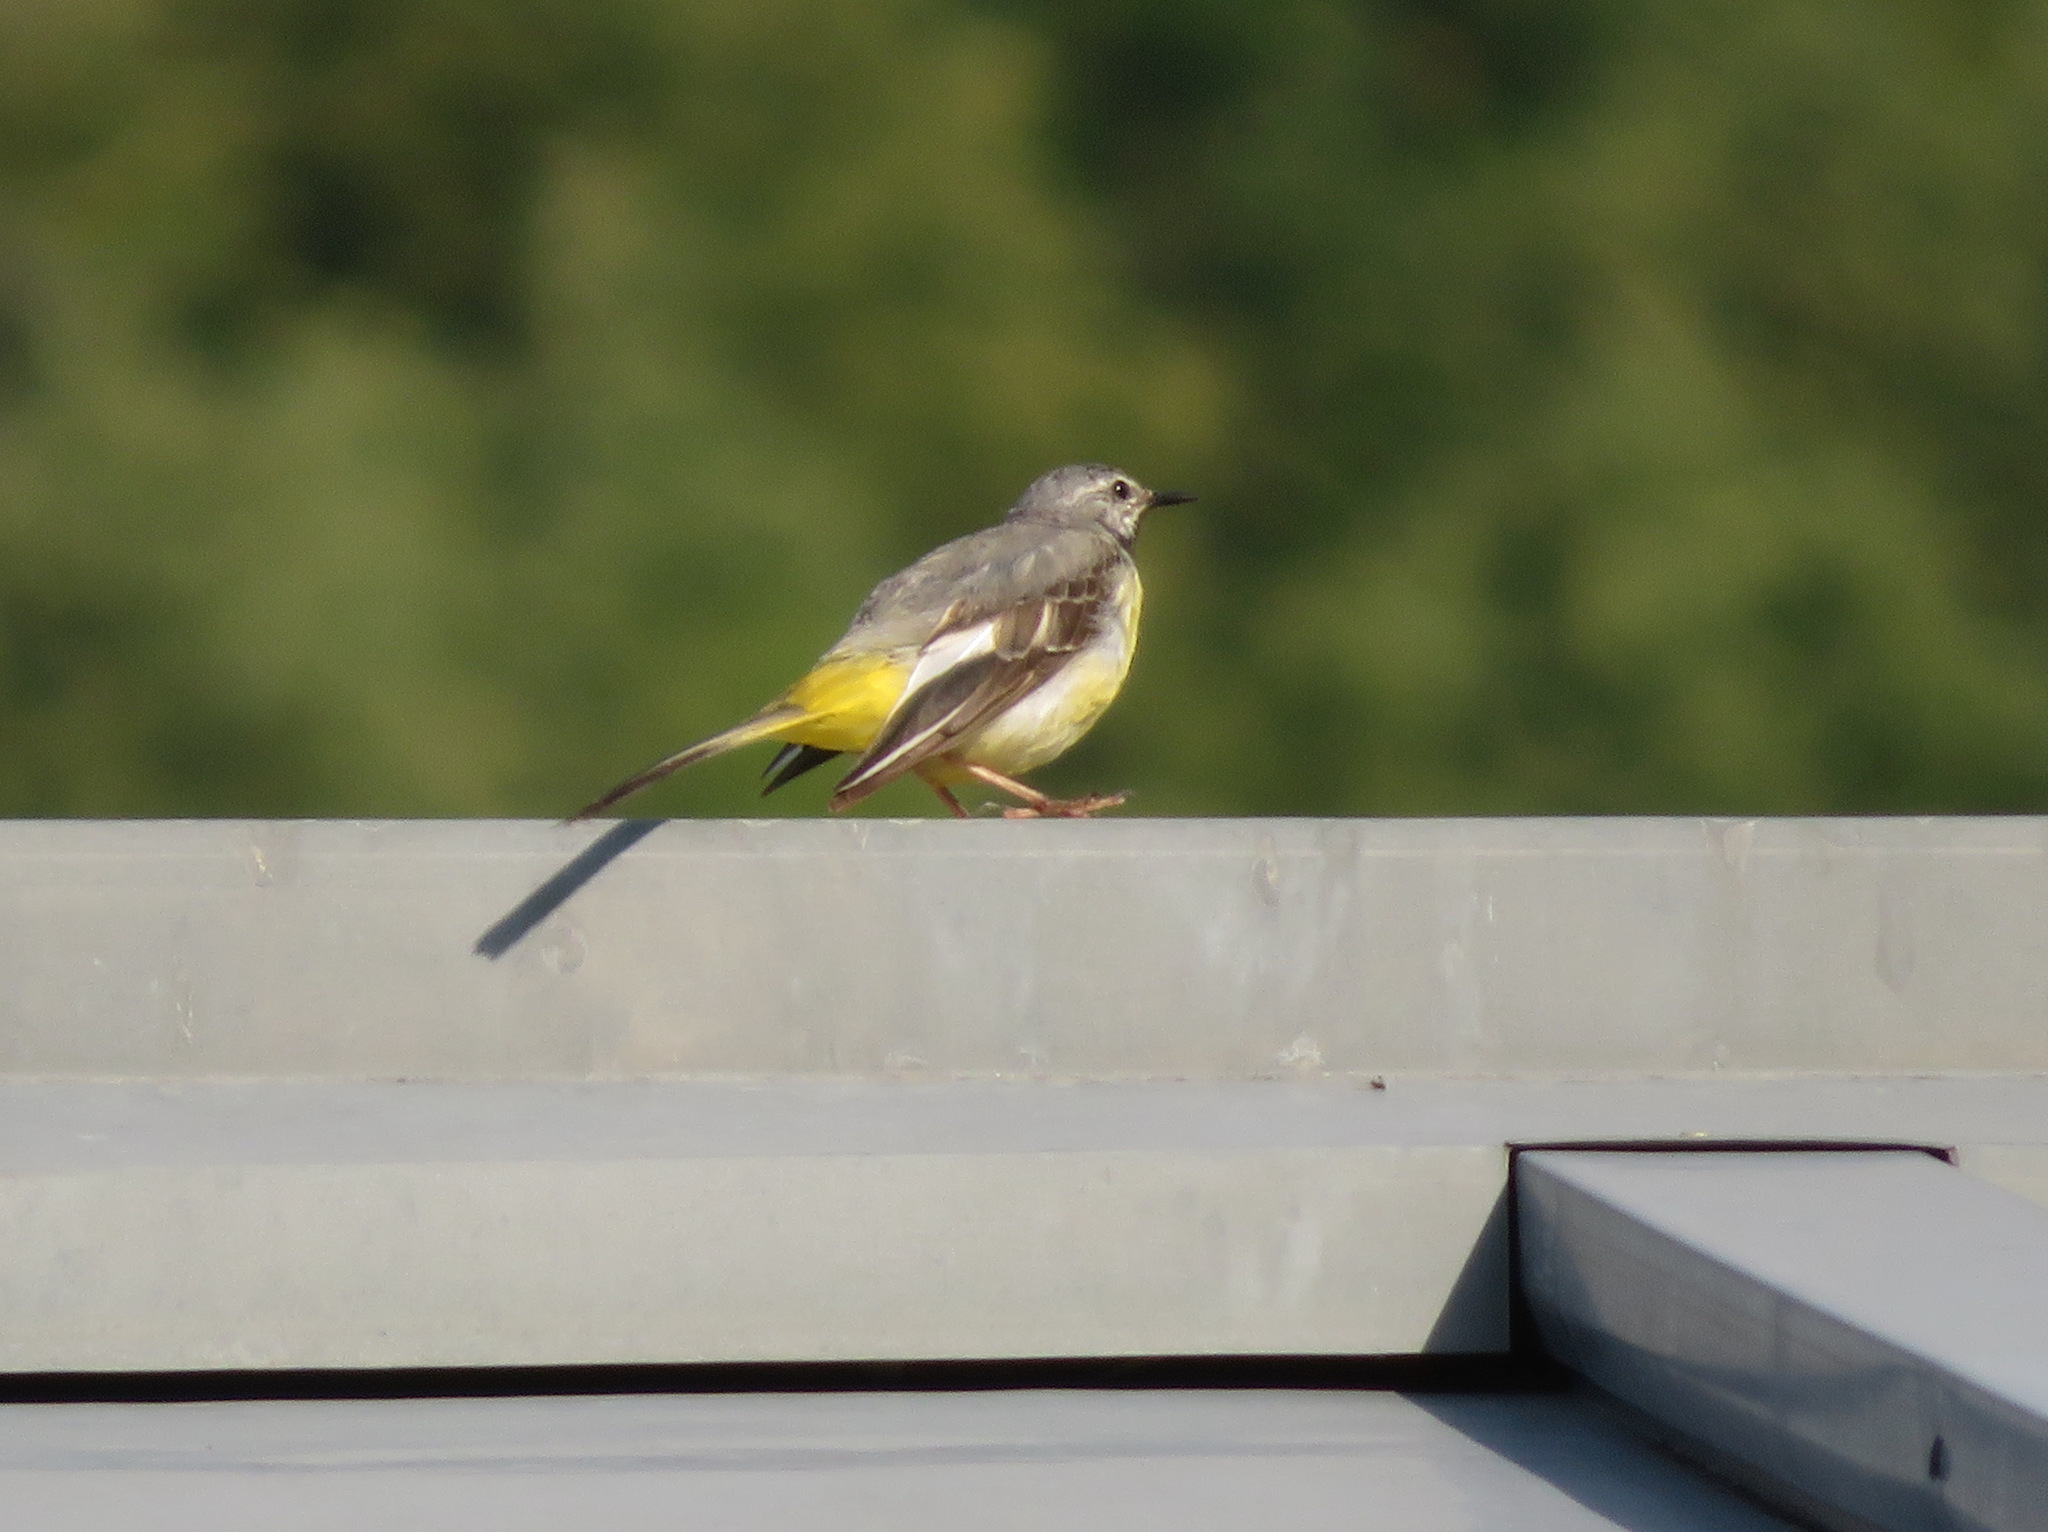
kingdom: Animalia
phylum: Chordata
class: Aves
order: Passeriformes
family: Motacillidae
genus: Motacilla
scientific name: Motacilla cinerea
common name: Grey wagtail
